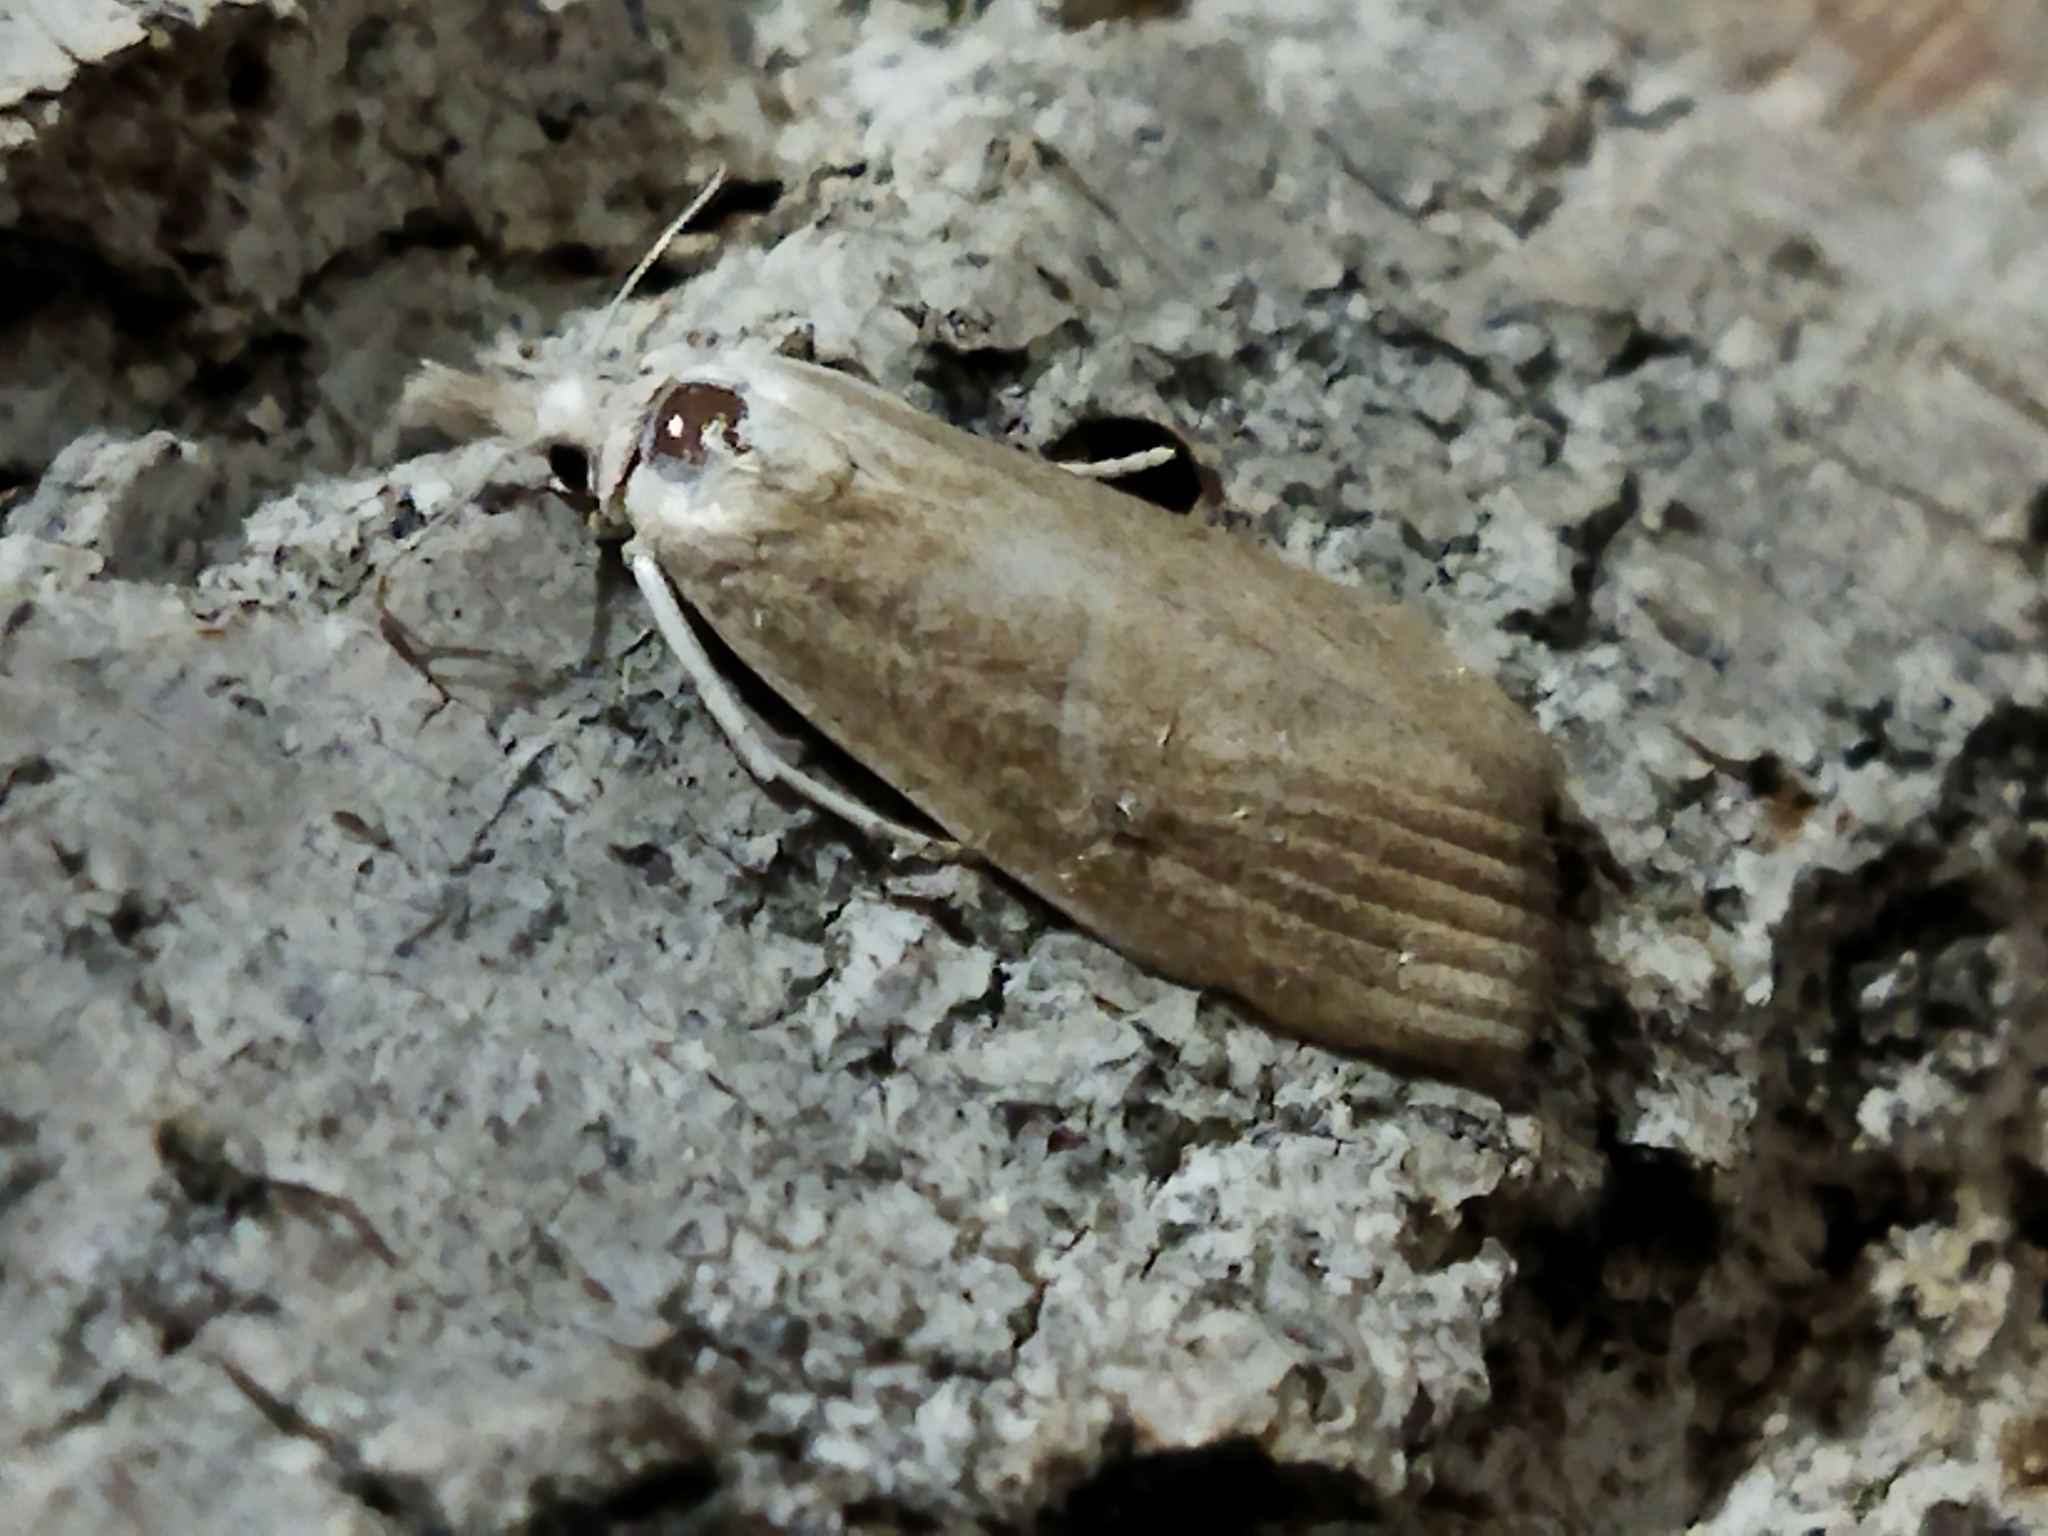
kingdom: Animalia
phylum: Arthropoda
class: Insecta
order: Lepidoptera
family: Crambidae
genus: Calamotropha
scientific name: Calamotropha paludella
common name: Bulrush veneer
